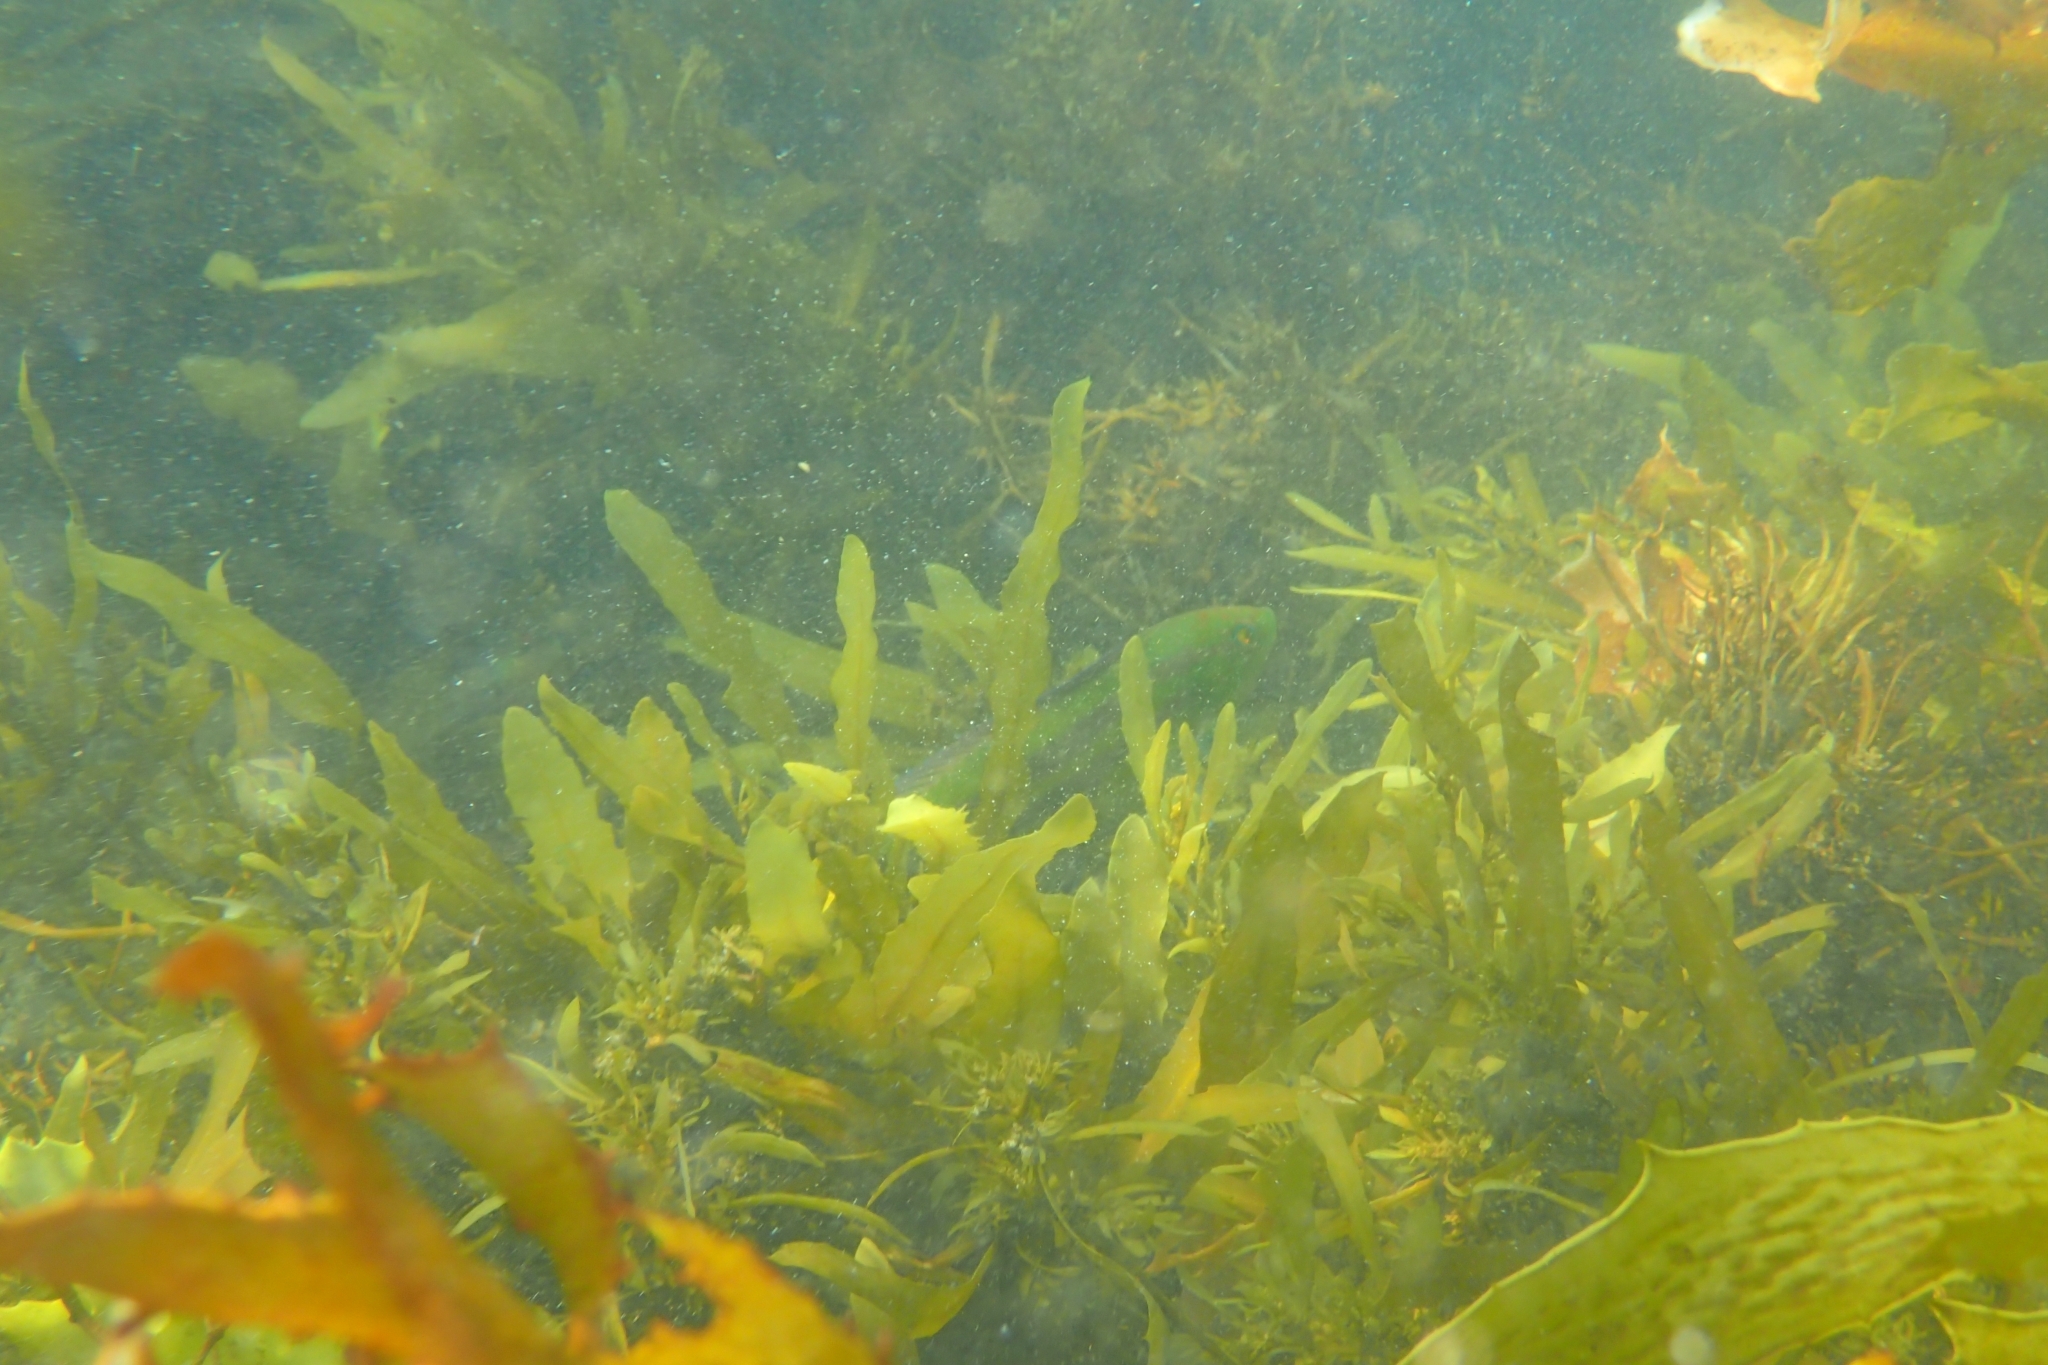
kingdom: Animalia
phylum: Chordata
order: Perciformes
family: Labridae
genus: Pictilabrus
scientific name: Pictilabrus laticlavius
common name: Patrician wrasse
